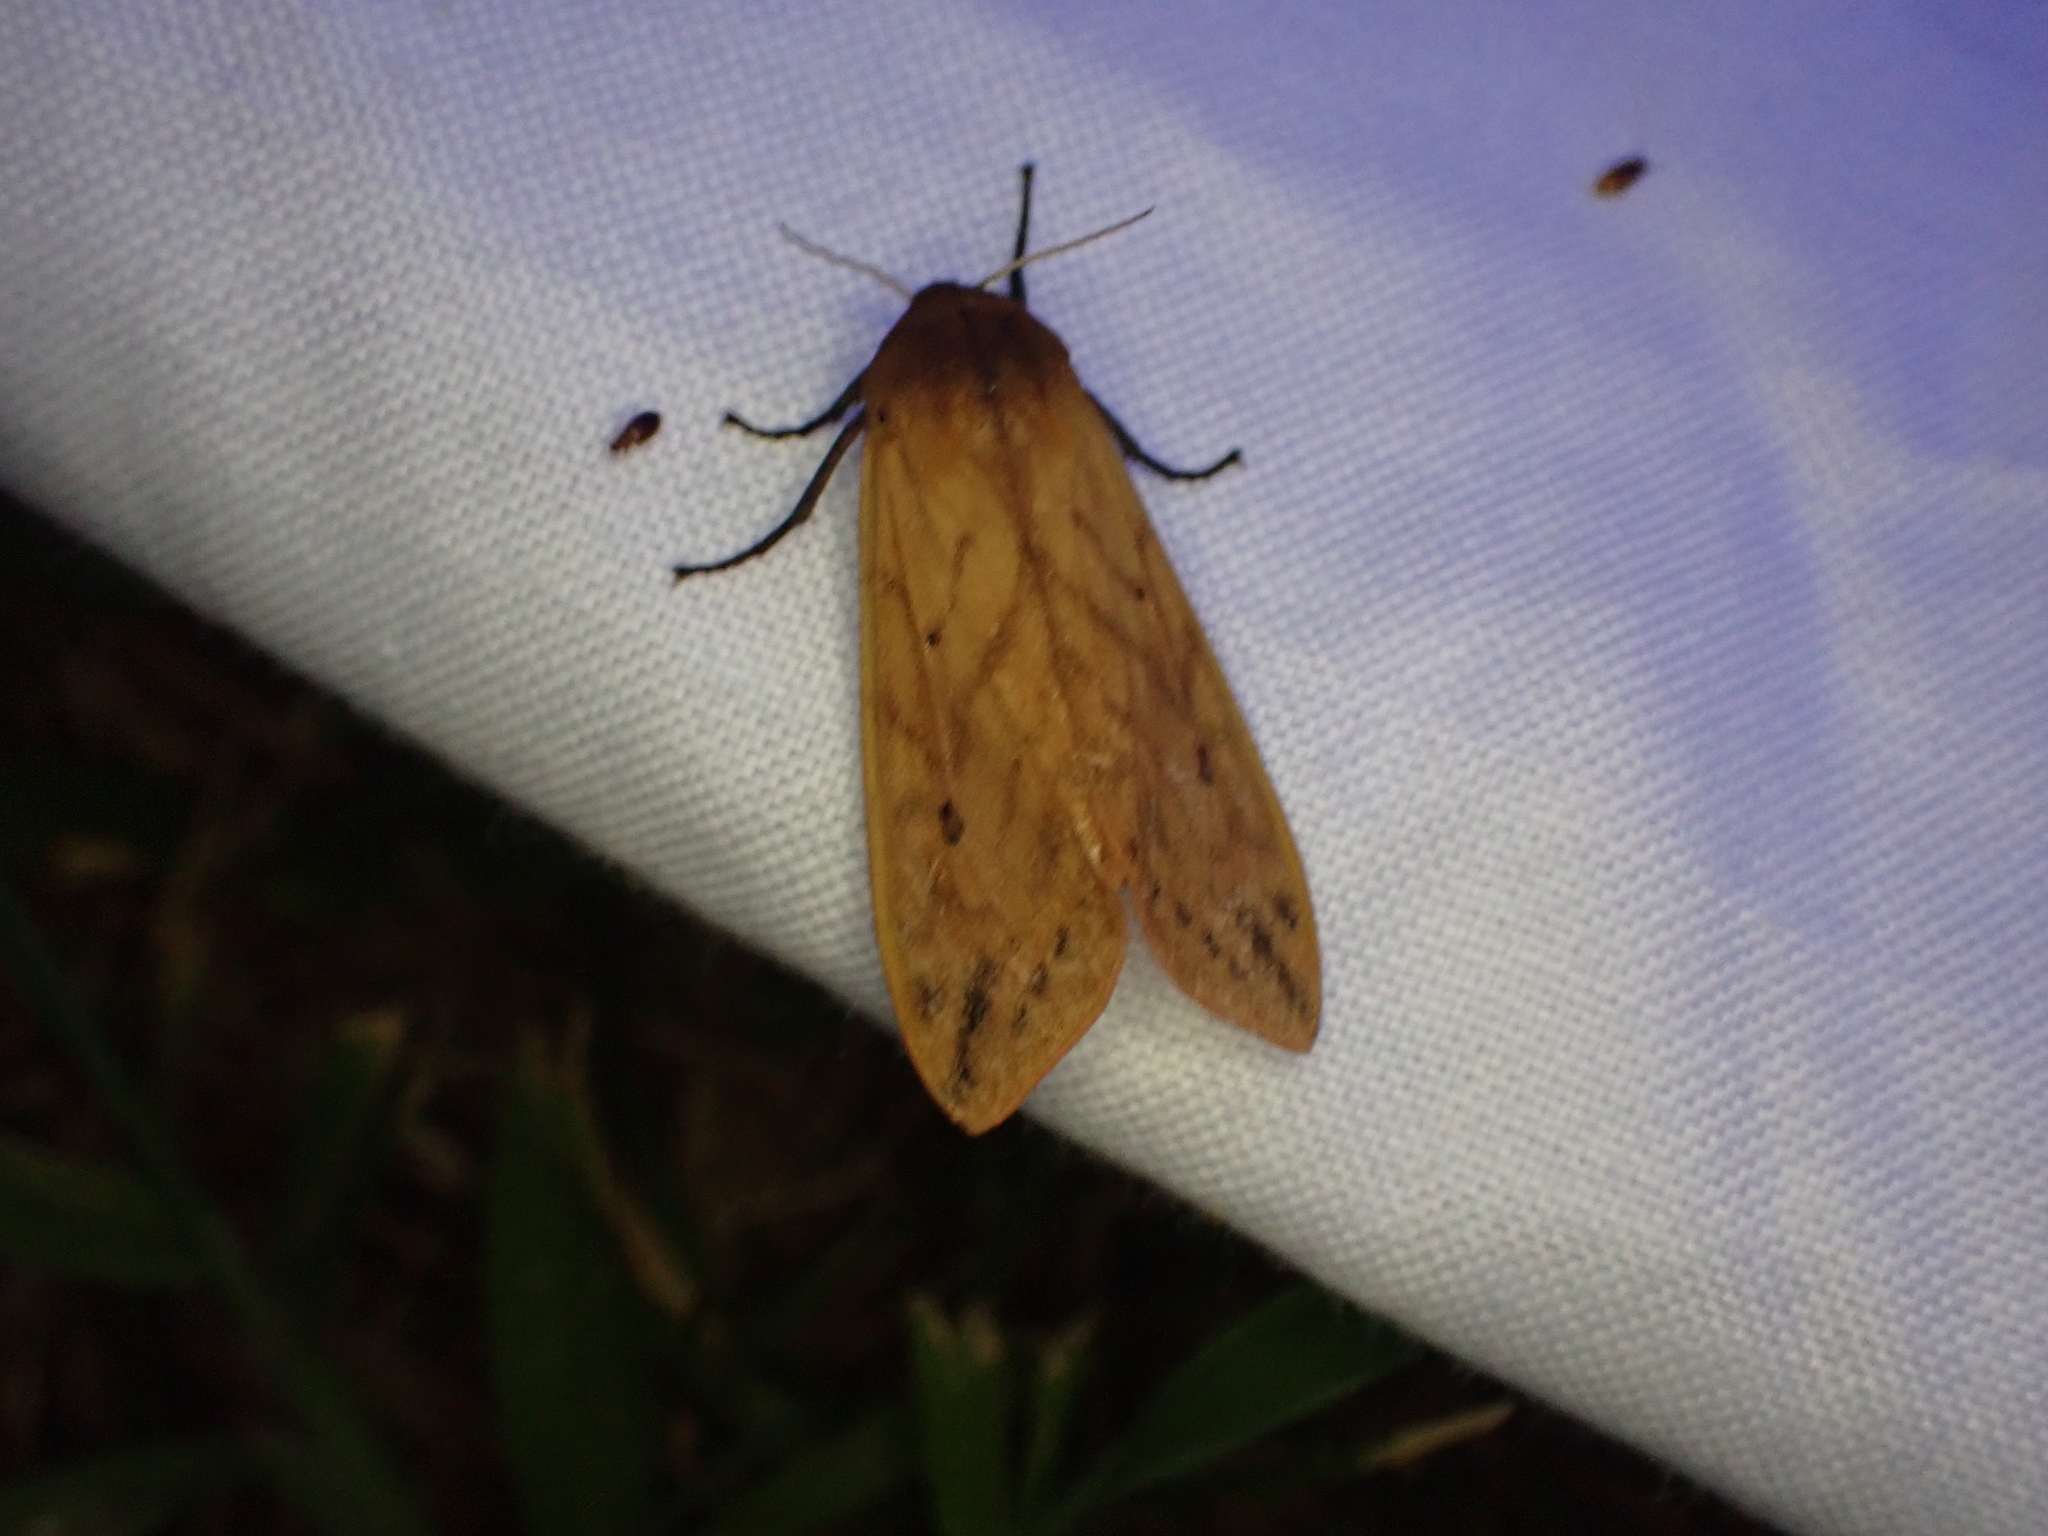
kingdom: Animalia
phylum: Arthropoda
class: Insecta
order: Lepidoptera
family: Erebidae
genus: Pyrrharctia
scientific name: Pyrrharctia isabella
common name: Isabella tiger moth
